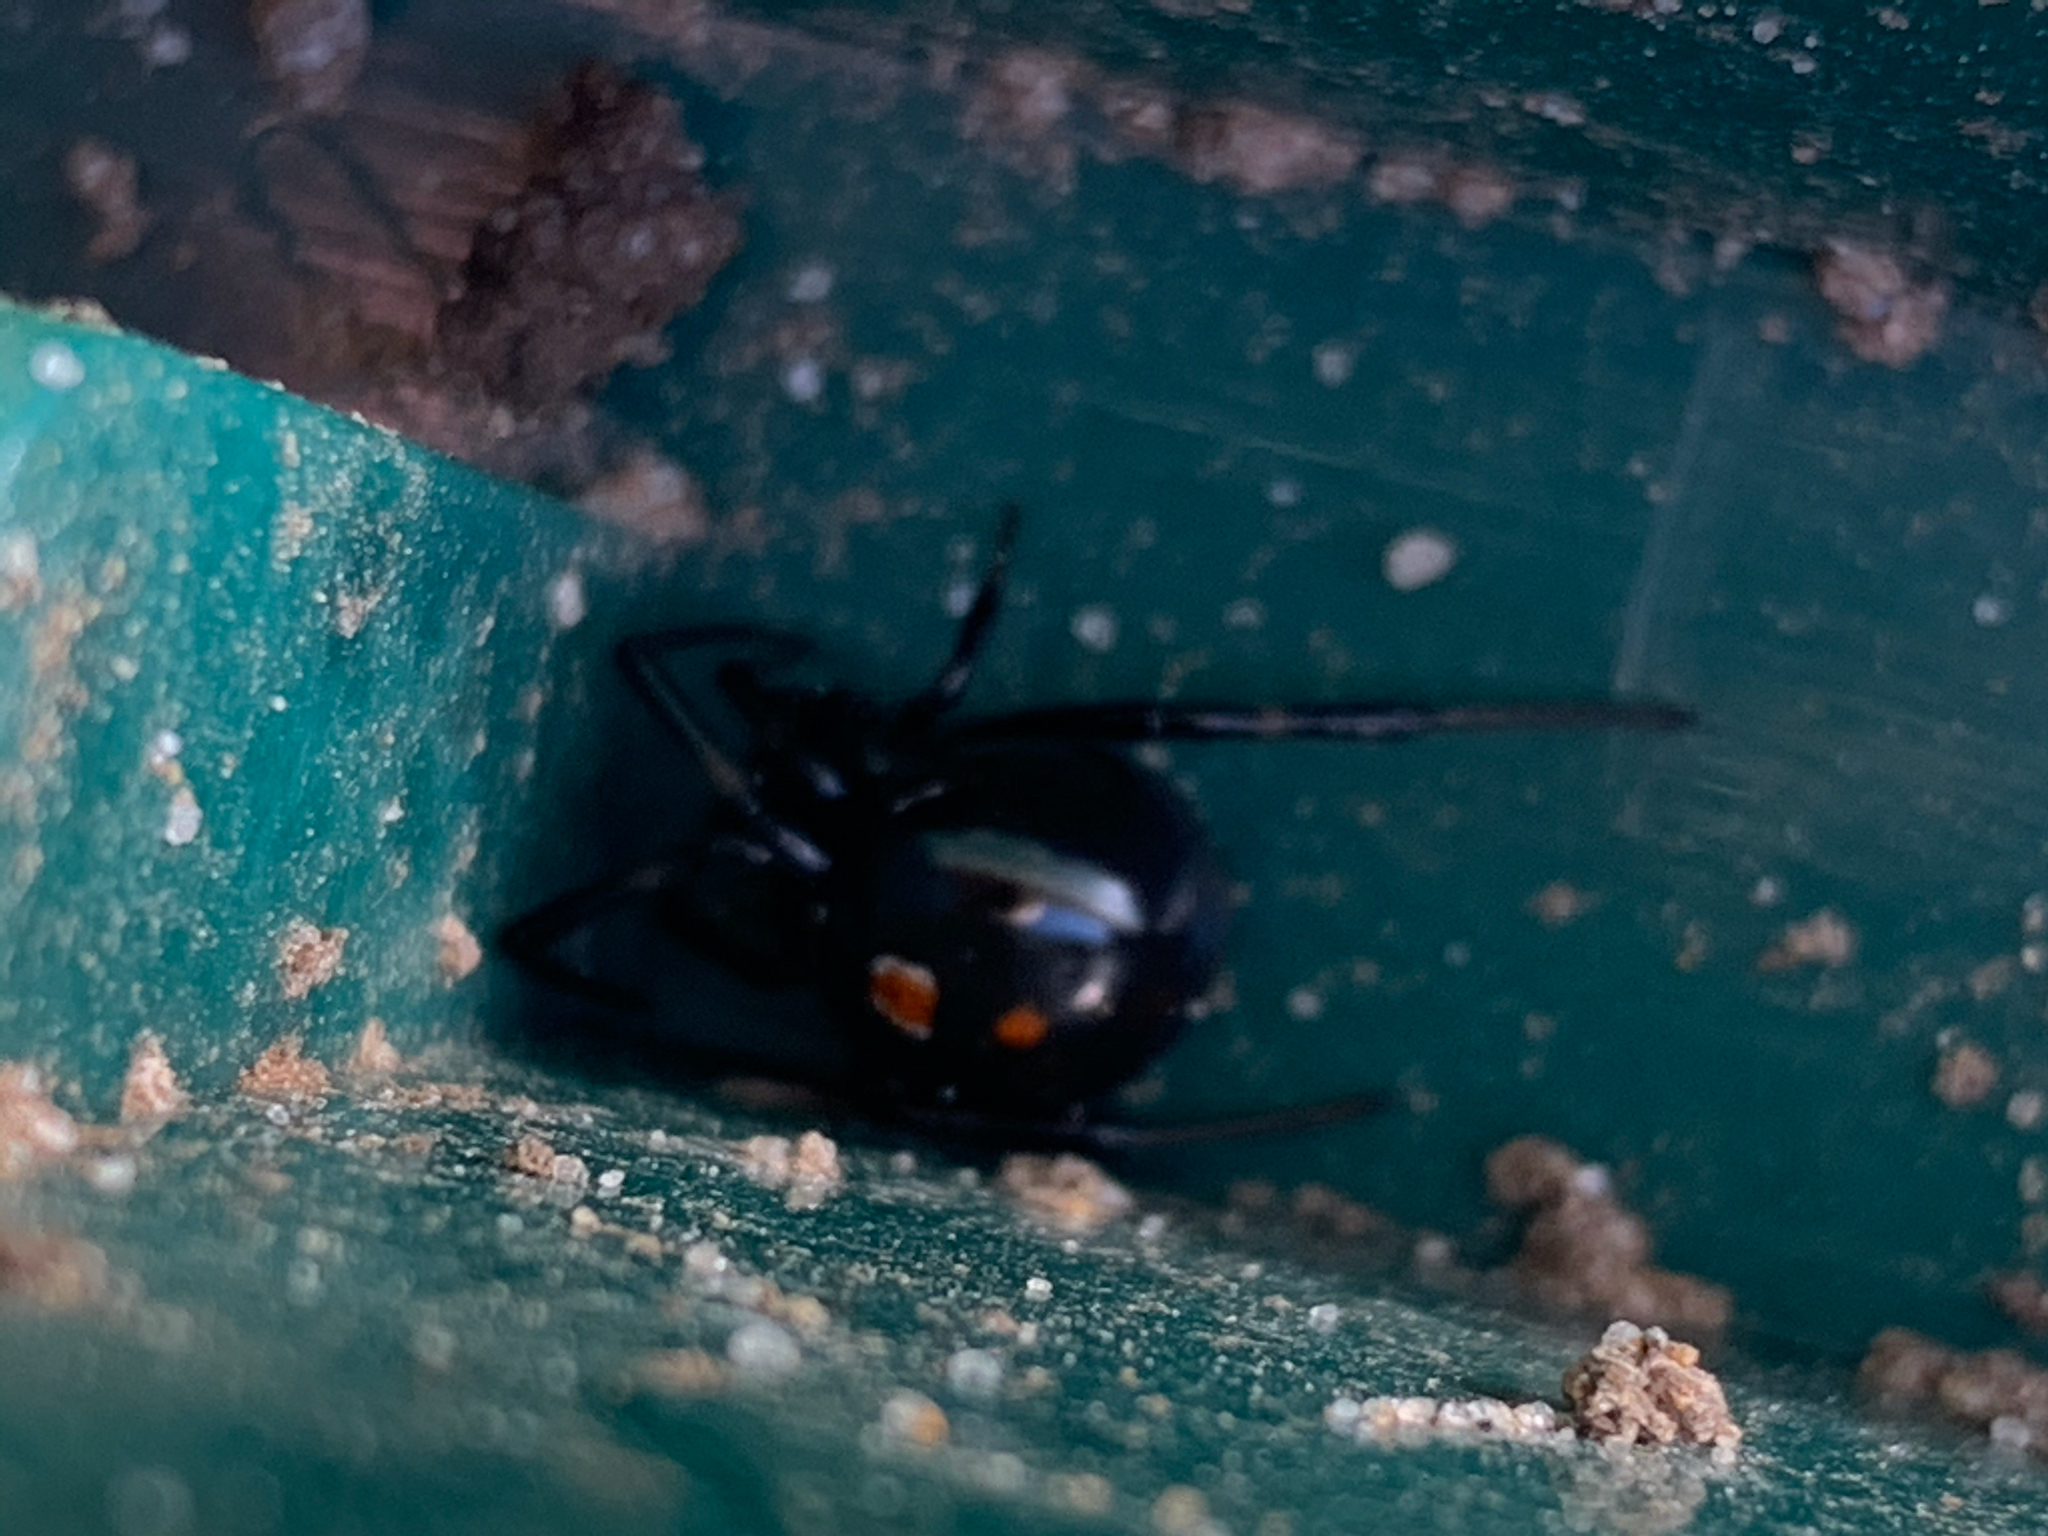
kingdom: Animalia
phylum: Arthropoda
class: Arachnida
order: Araneae
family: Theridiidae
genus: Latrodectus
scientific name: Latrodectus mactans
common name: Cobweb spiders
